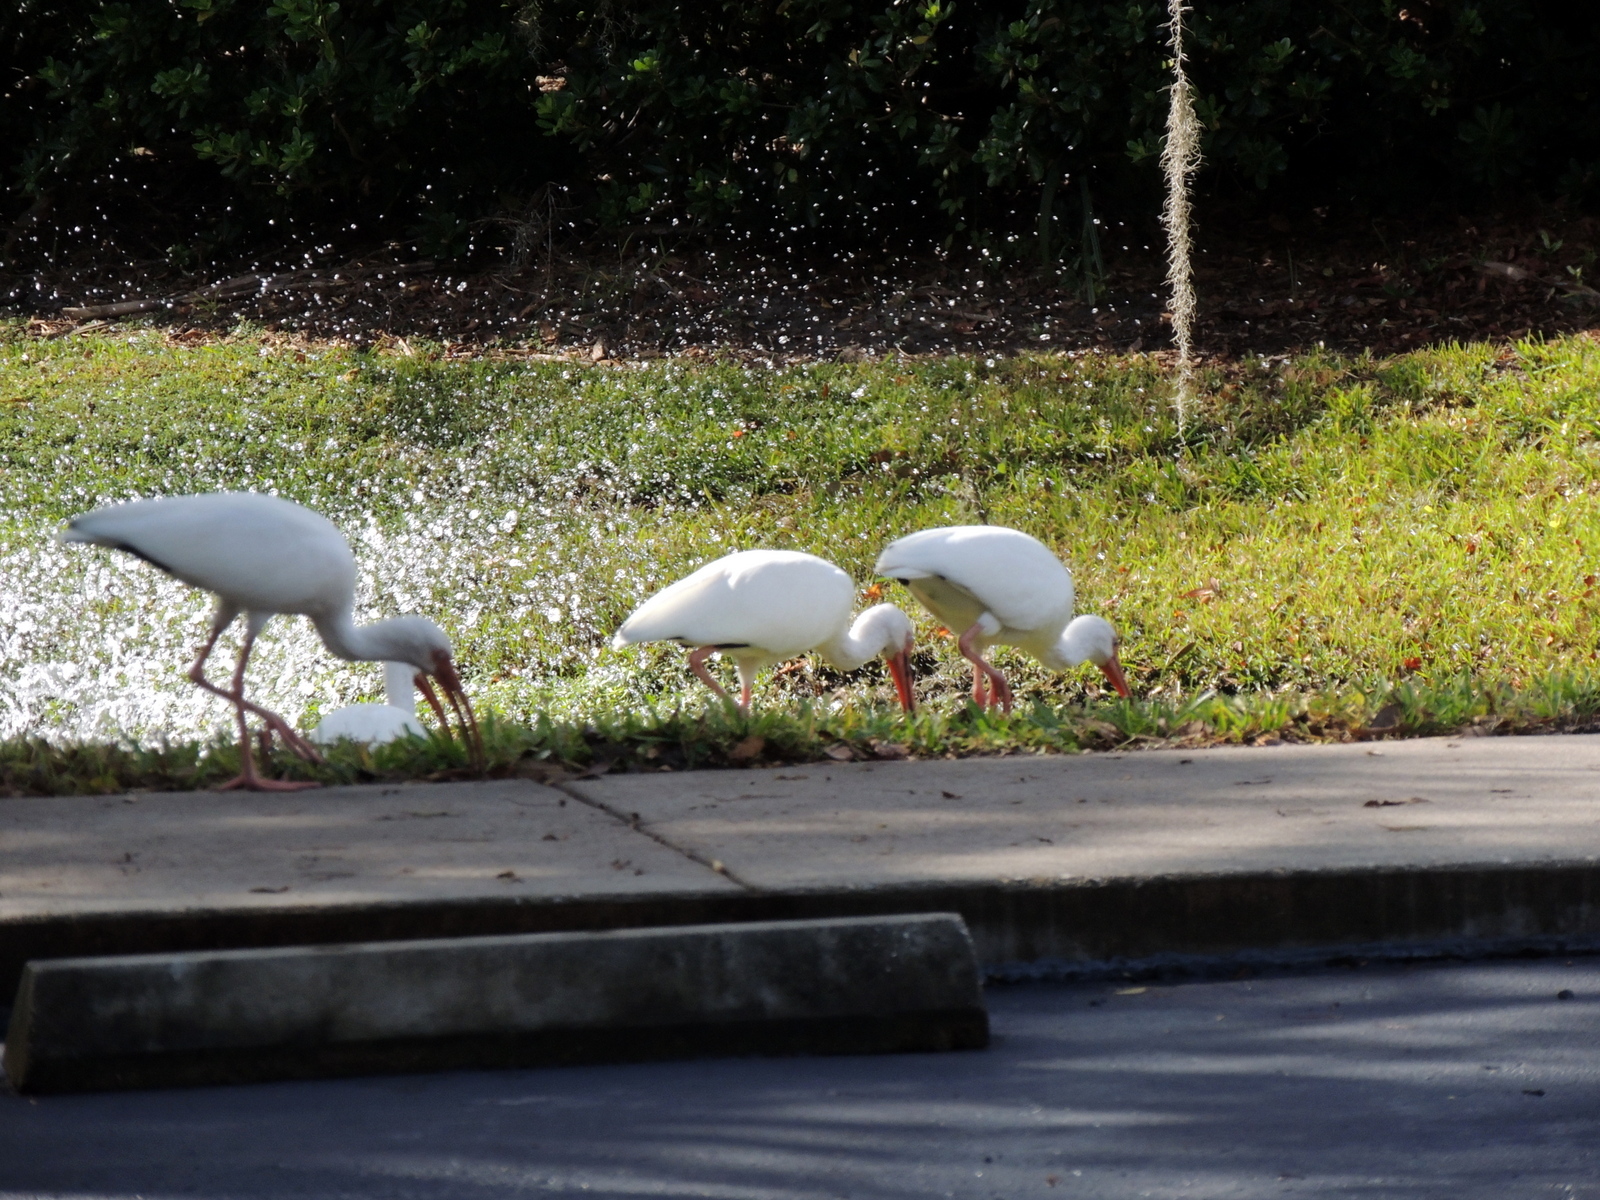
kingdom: Animalia
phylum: Chordata
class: Aves
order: Pelecaniformes
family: Threskiornithidae
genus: Eudocimus
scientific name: Eudocimus albus
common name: White ibis
